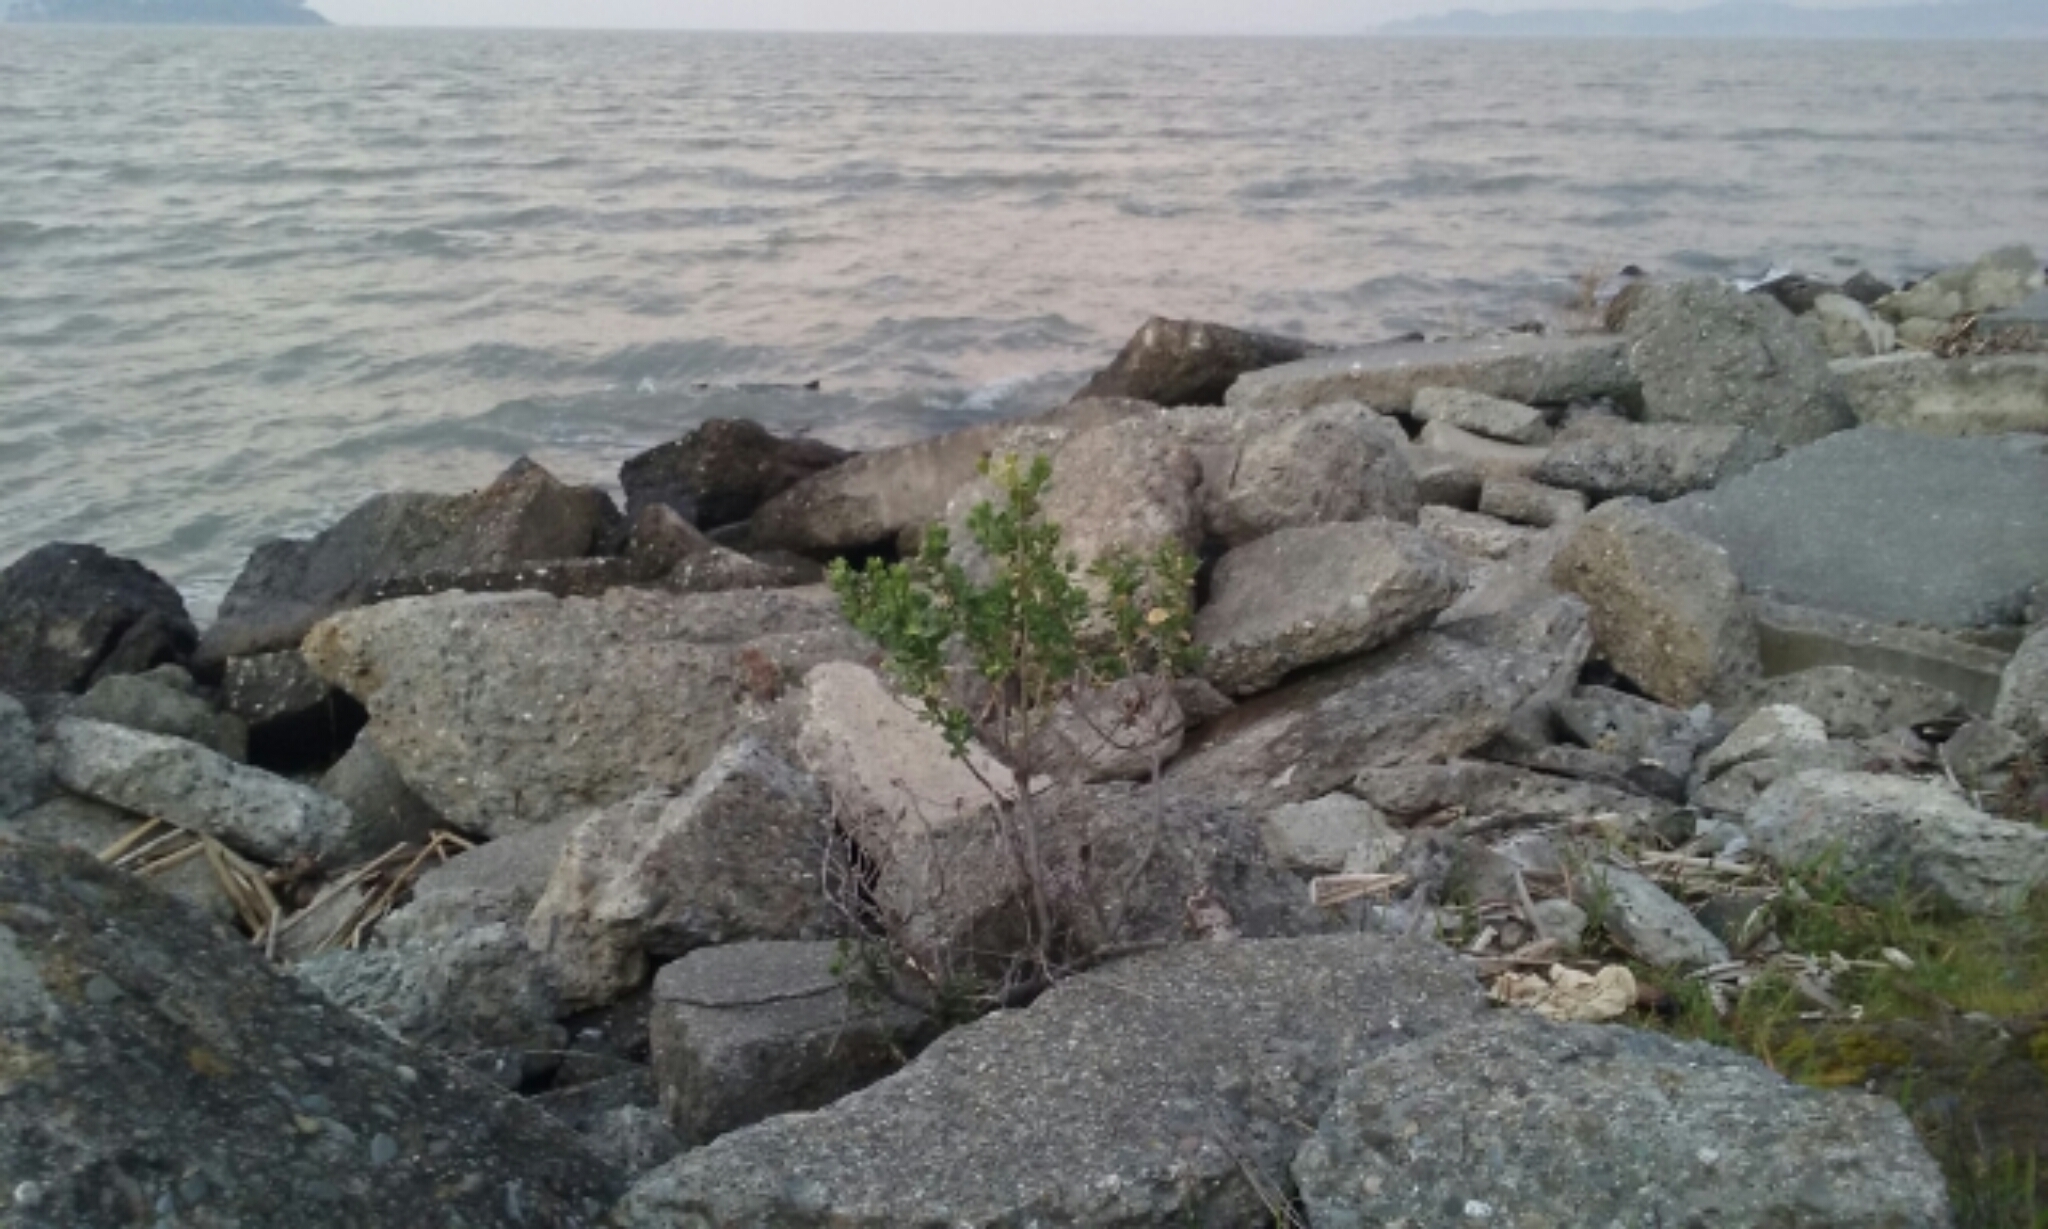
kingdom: Plantae
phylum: Tracheophyta
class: Magnoliopsida
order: Asterales
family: Asteraceae
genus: Baccharis
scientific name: Baccharis pilularis
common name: Coyotebrush
